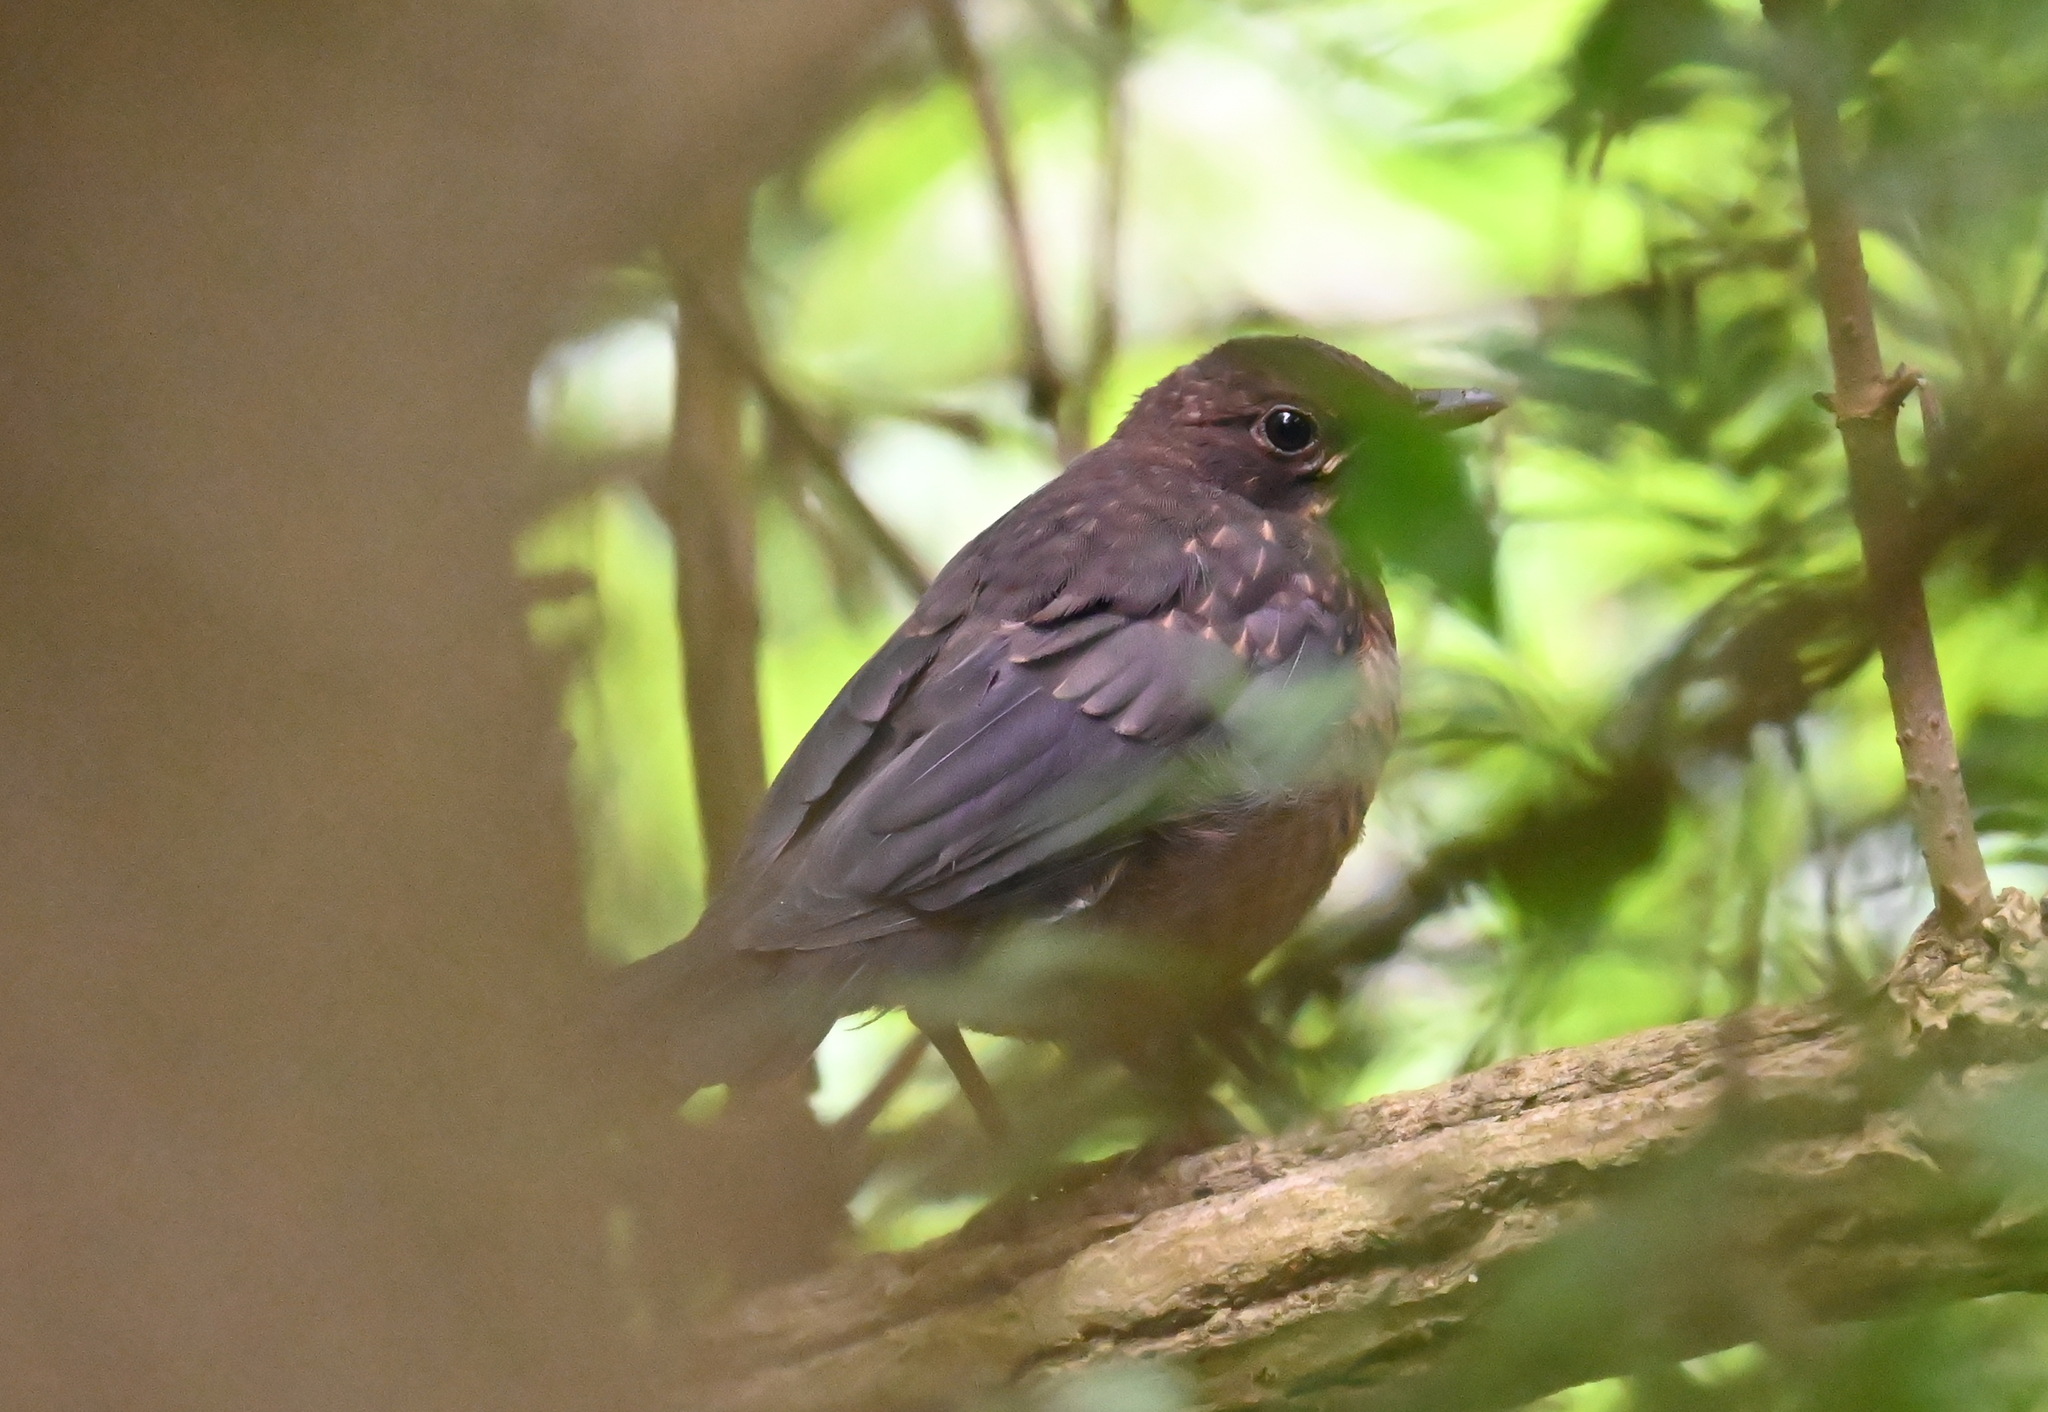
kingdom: Animalia
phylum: Chordata
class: Aves
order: Passeriformes
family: Turdidae
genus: Turdus
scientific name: Turdus merula
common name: Common blackbird
